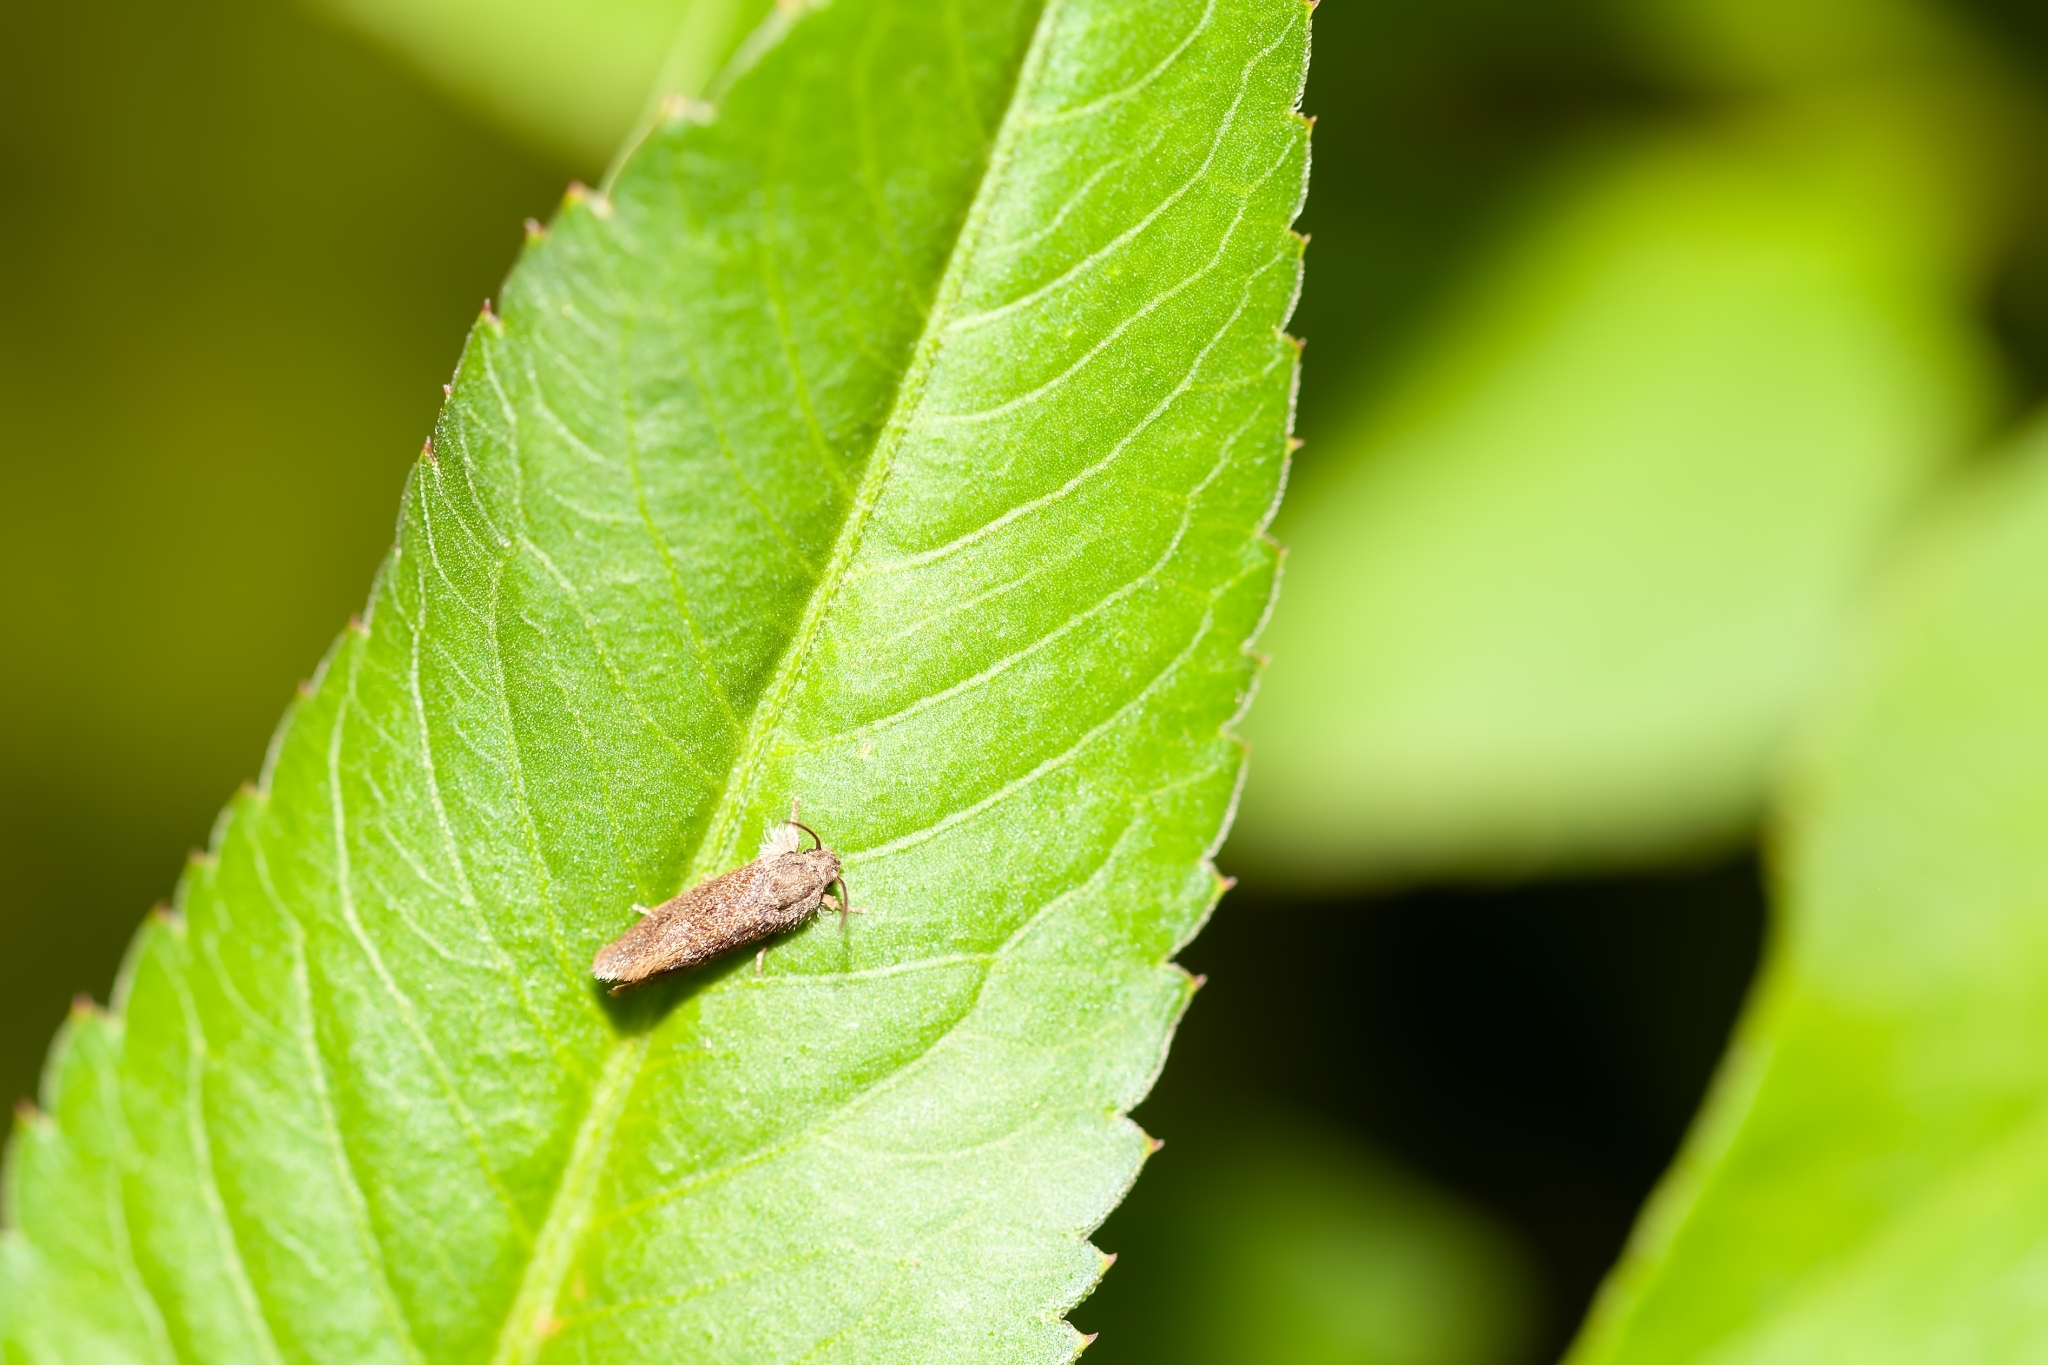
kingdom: Animalia
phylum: Arthropoda
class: Insecta
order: Lepidoptera
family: Tineidae
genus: Acrolophus
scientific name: Acrolophus heppneri
